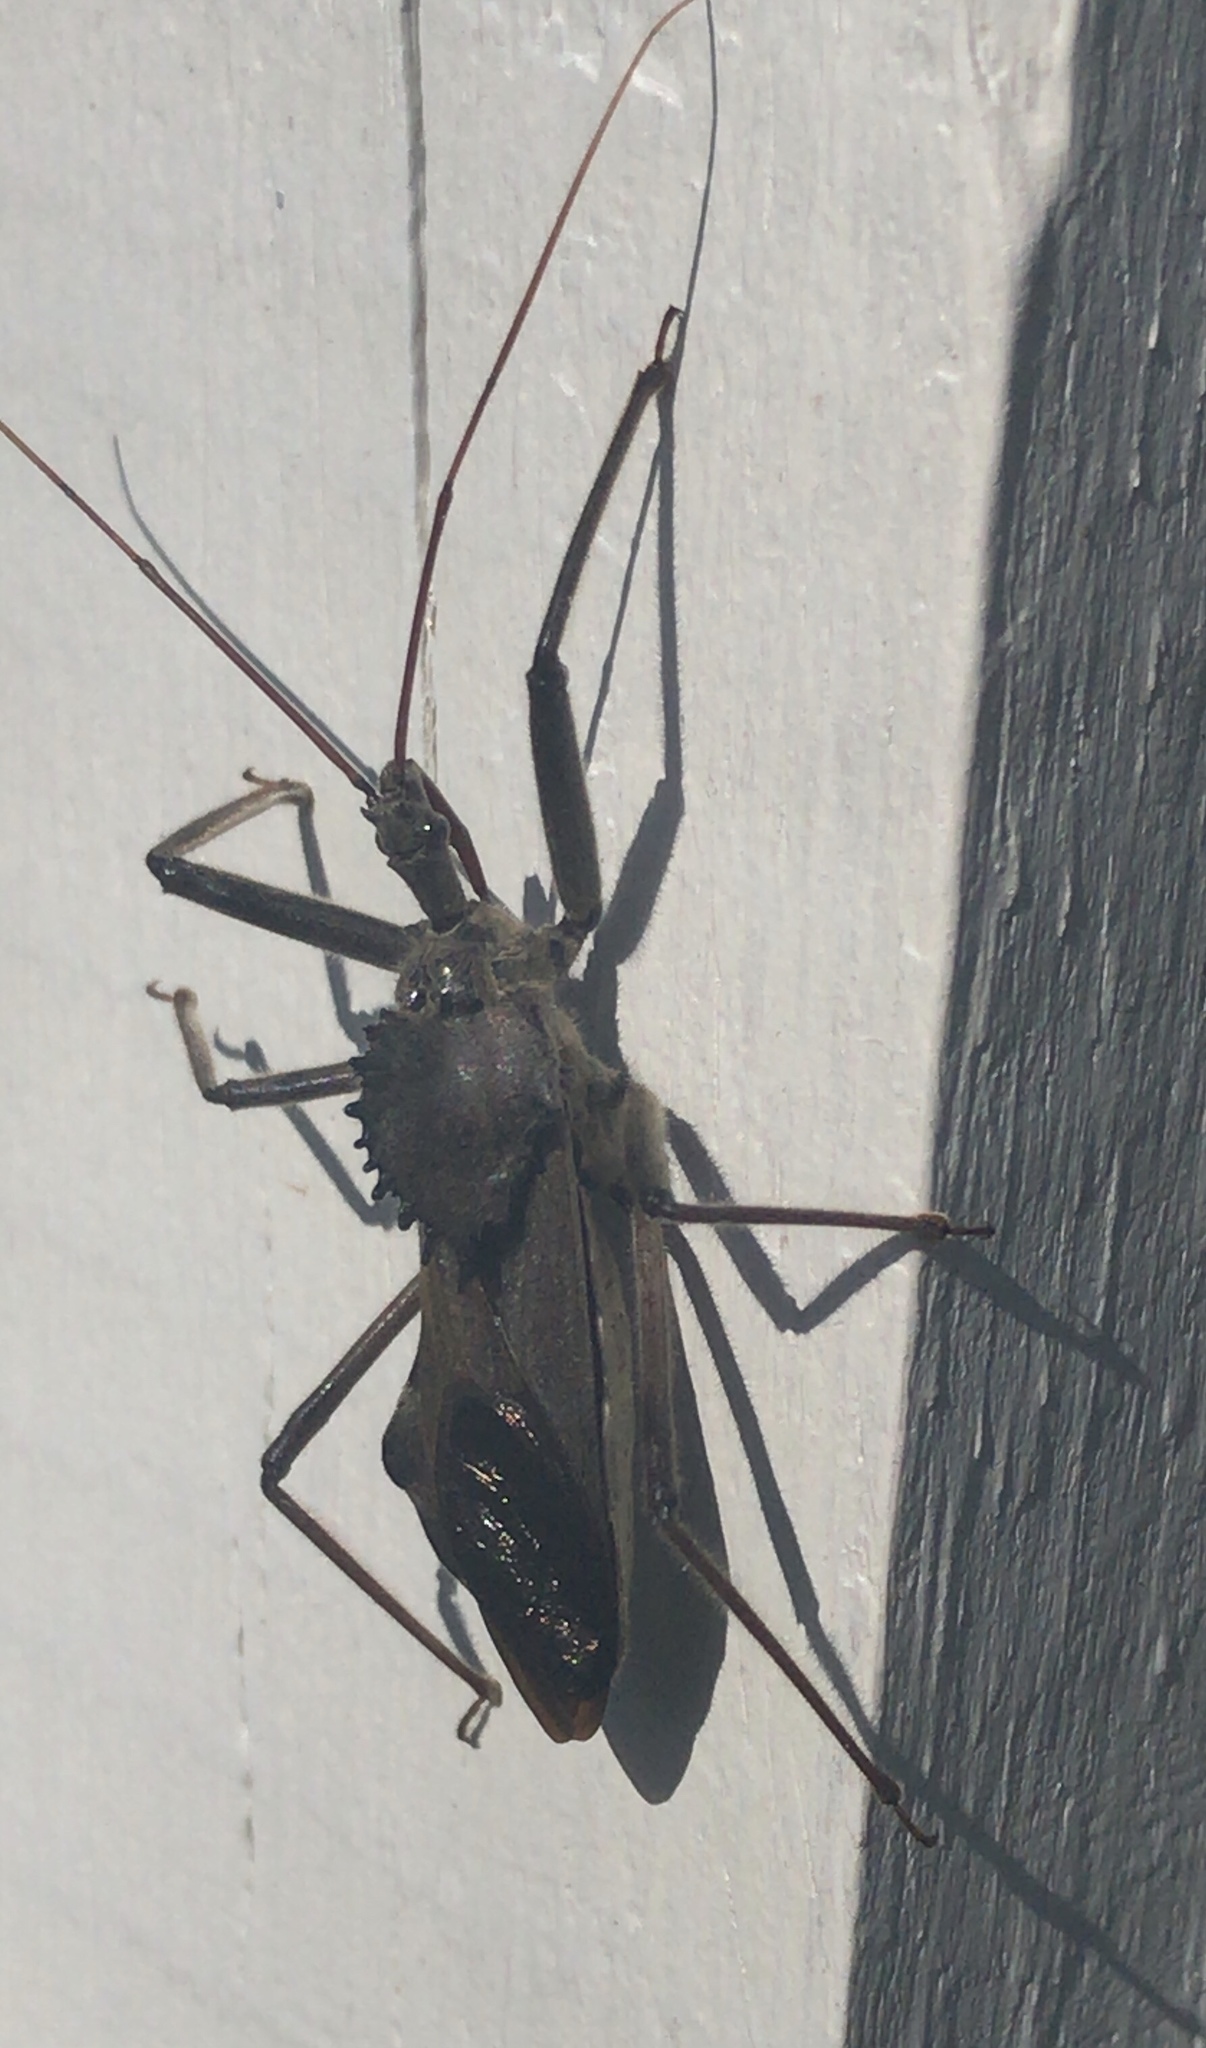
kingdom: Animalia
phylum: Arthropoda
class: Insecta
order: Hemiptera
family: Reduviidae
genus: Arilus
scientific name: Arilus cristatus
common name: North american wheel bug
